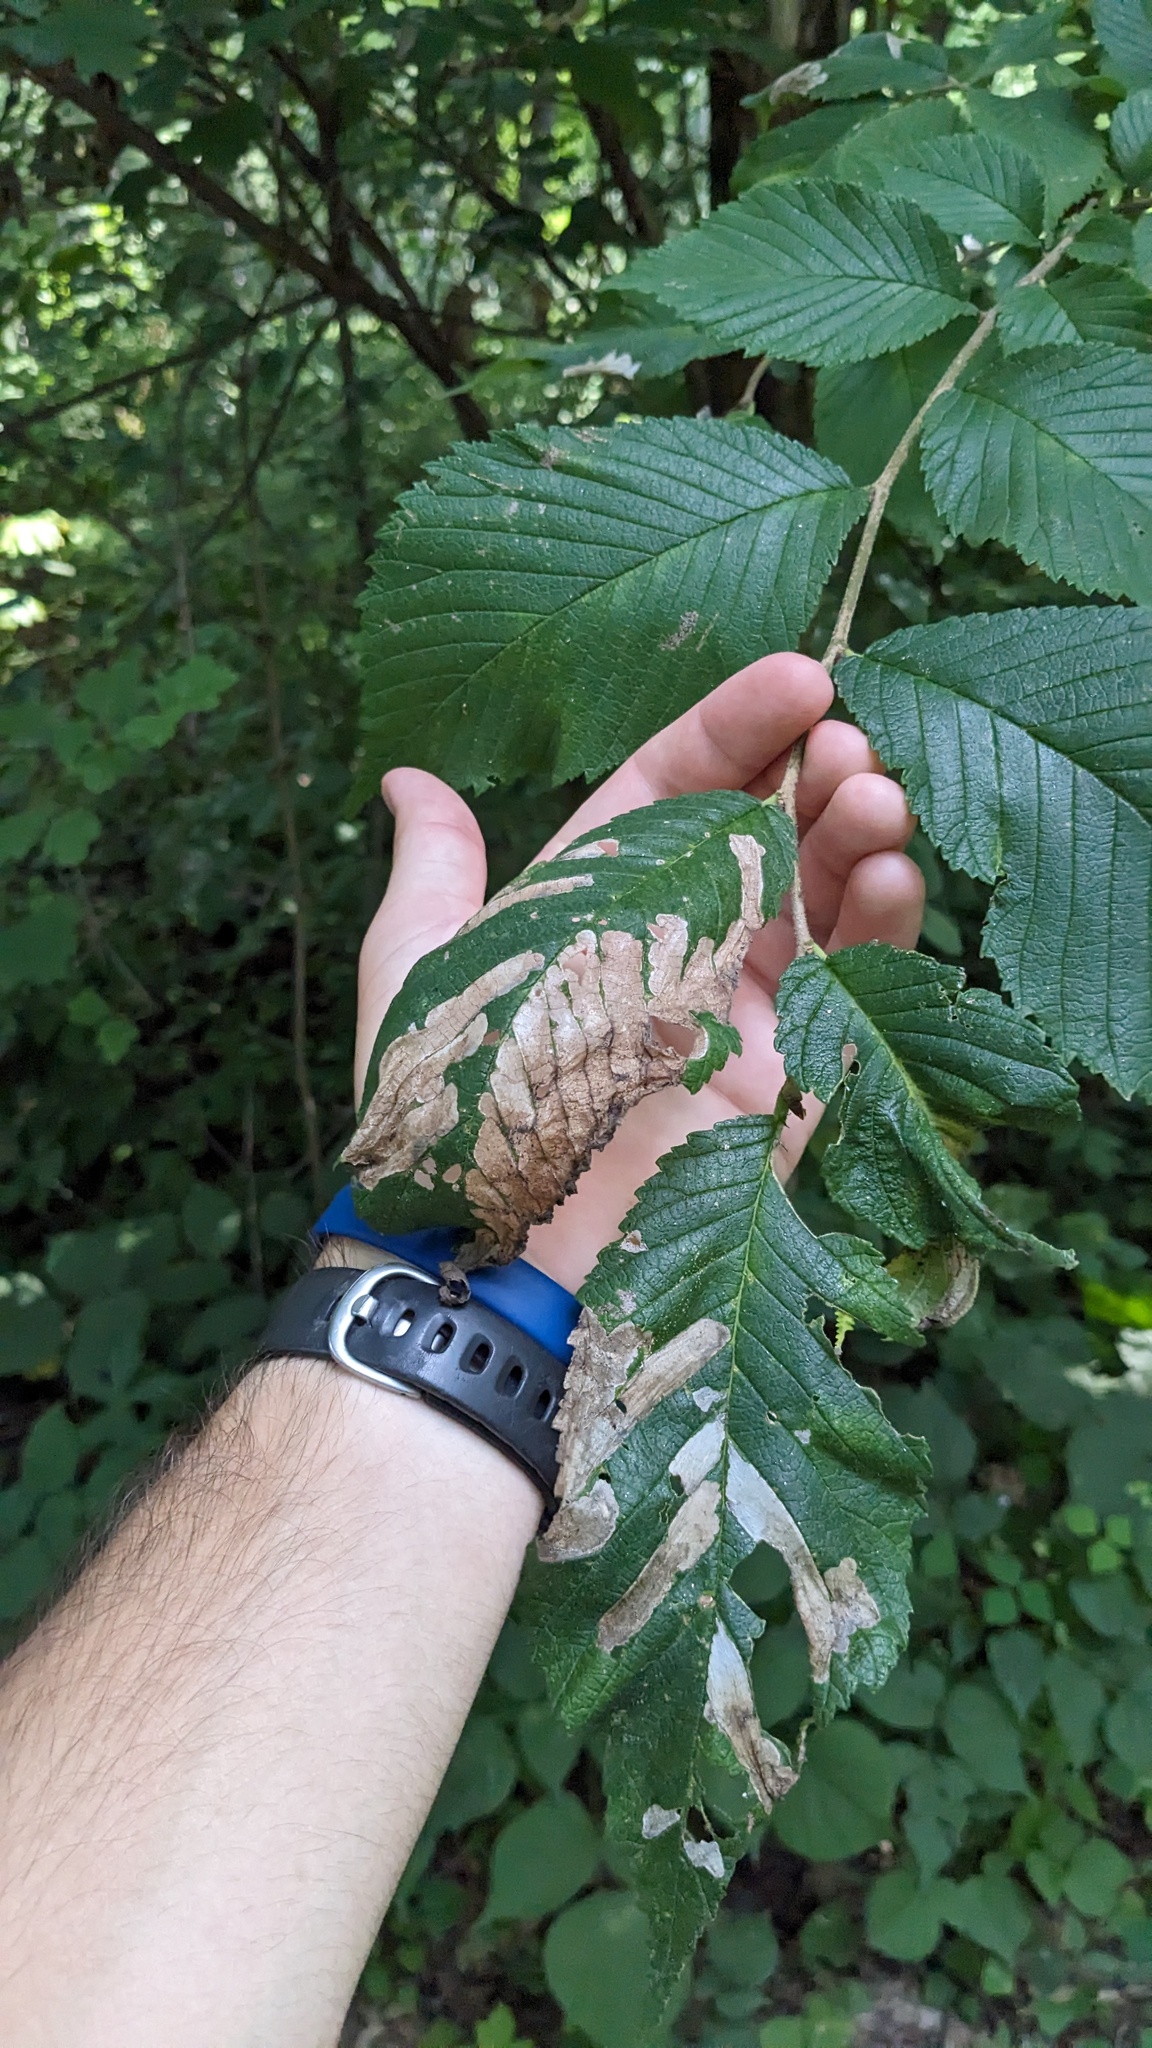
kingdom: Animalia
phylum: Arthropoda
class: Insecta
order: Hymenoptera
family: Tenthredinidae
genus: Fenusa
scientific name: Fenusa ulmi
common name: Elm leafminer
